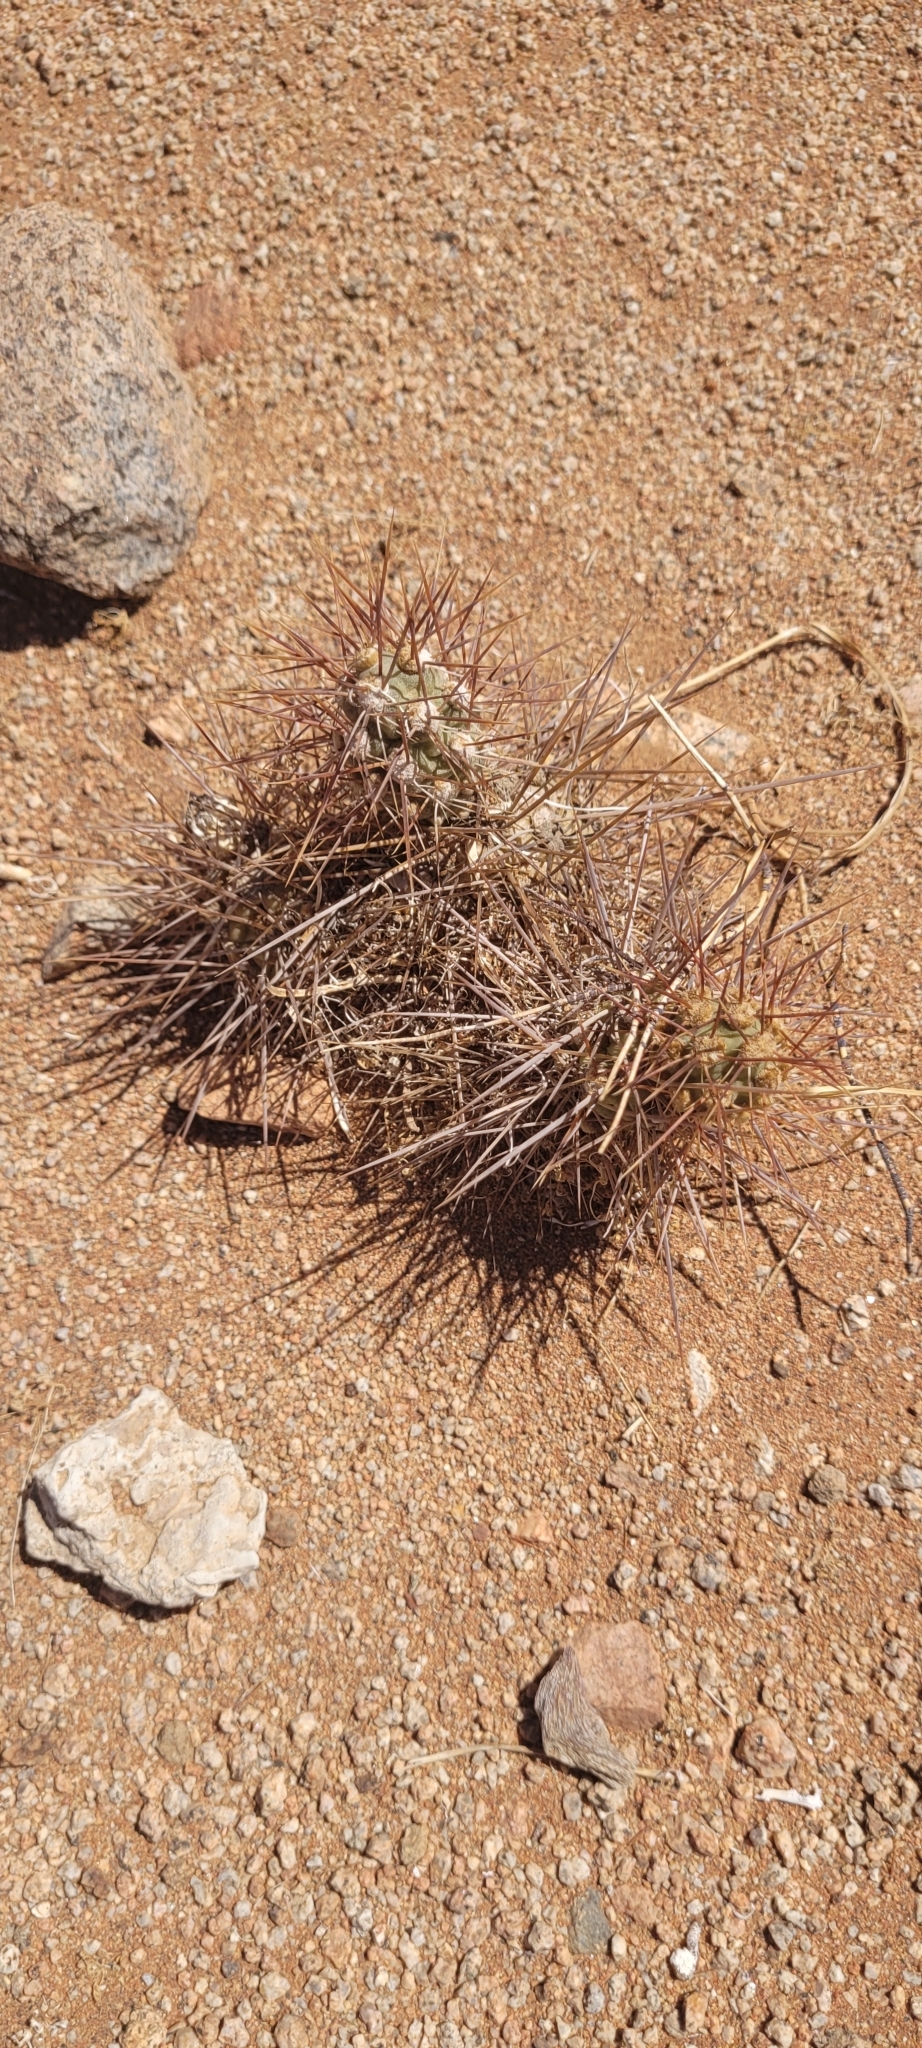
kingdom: Plantae
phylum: Tracheophyta
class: Magnoliopsida
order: Caryophyllales
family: Cactaceae
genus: Cumulopuntia
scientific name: Cumulopuntia leucophaea
